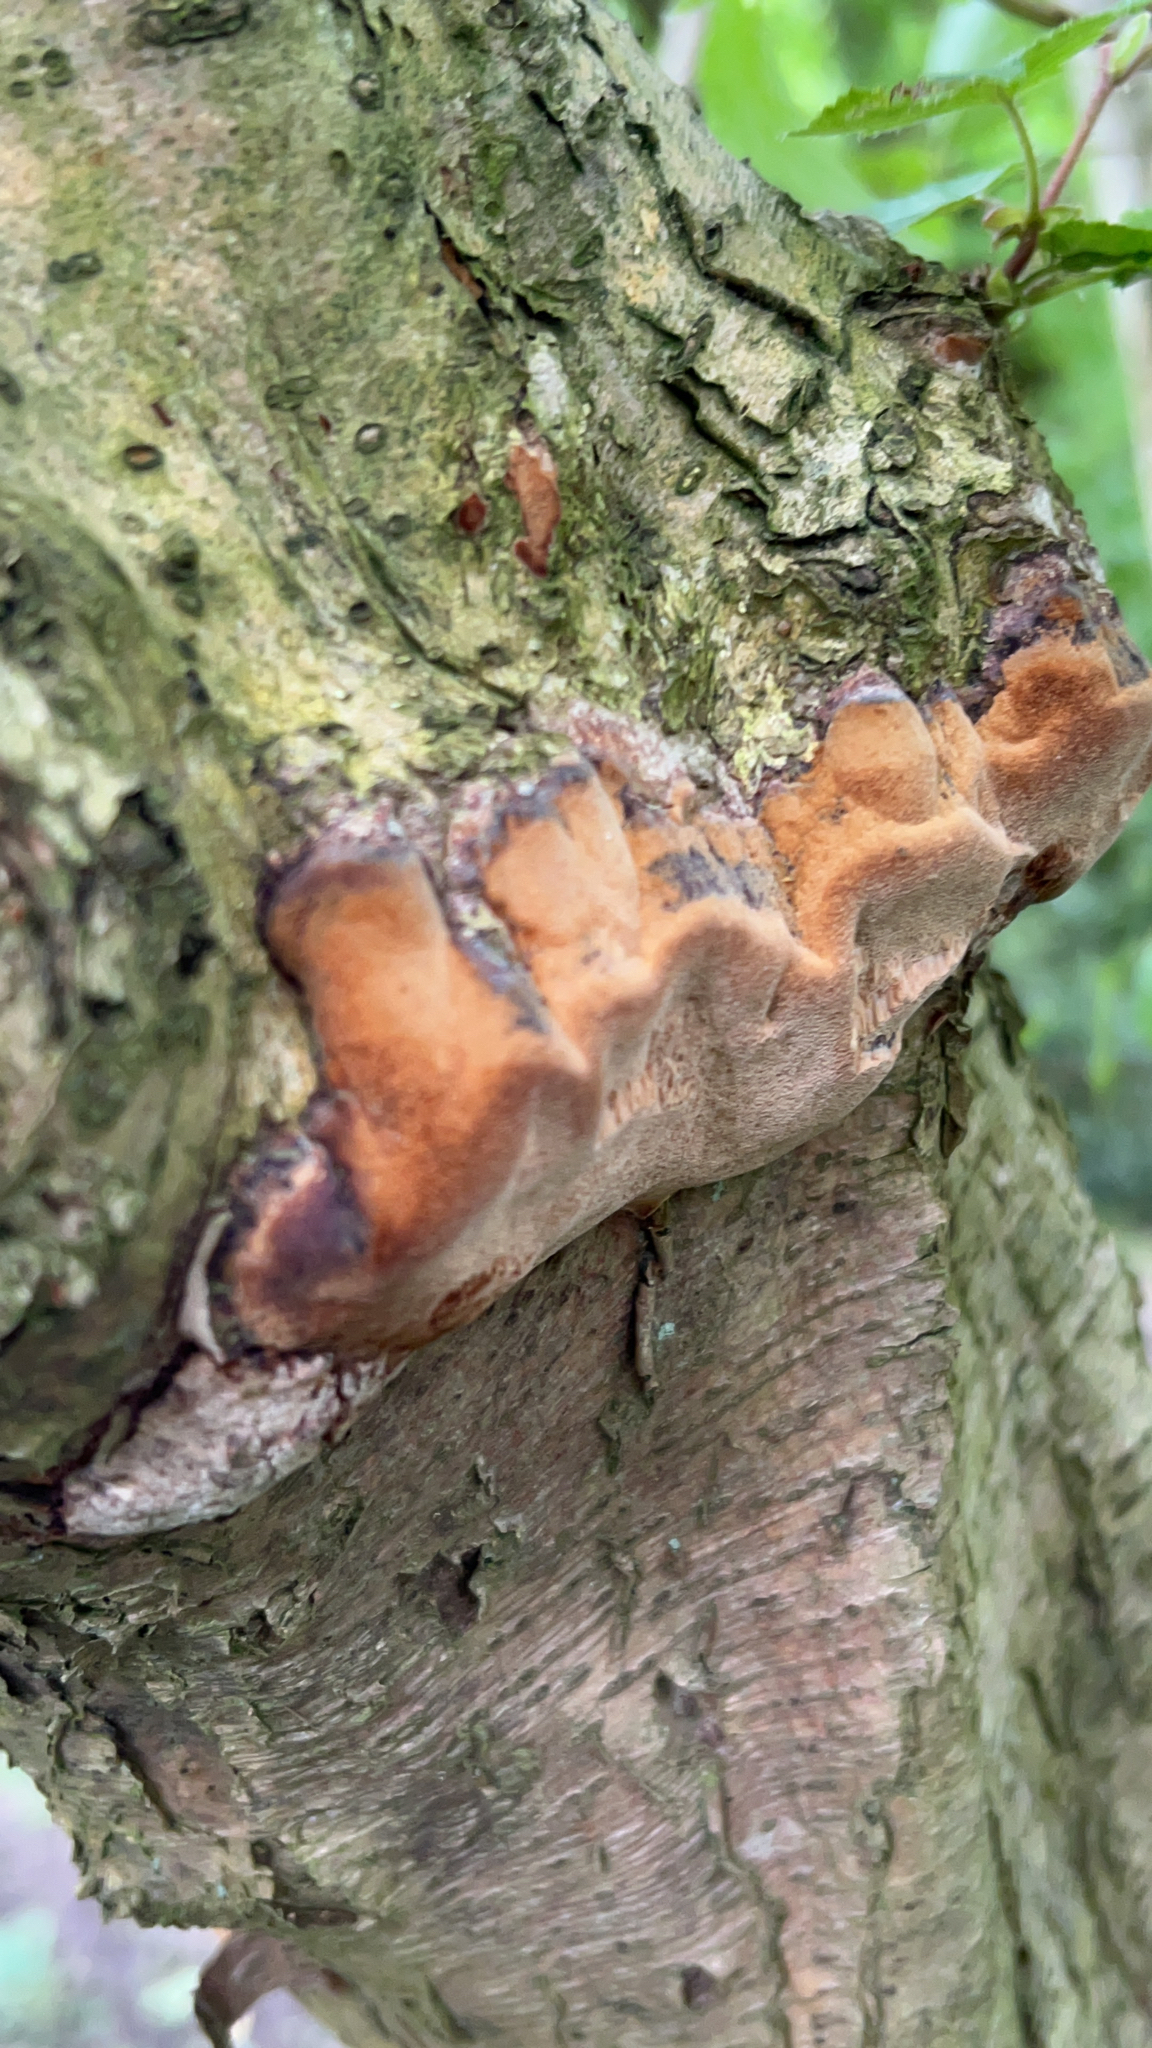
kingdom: Fungi
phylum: Basidiomycota
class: Agaricomycetes
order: Hymenochaetales
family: Hymenochaetaceae
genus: Phellinus
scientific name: Phellinus pomaceus
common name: Cushion bracket
